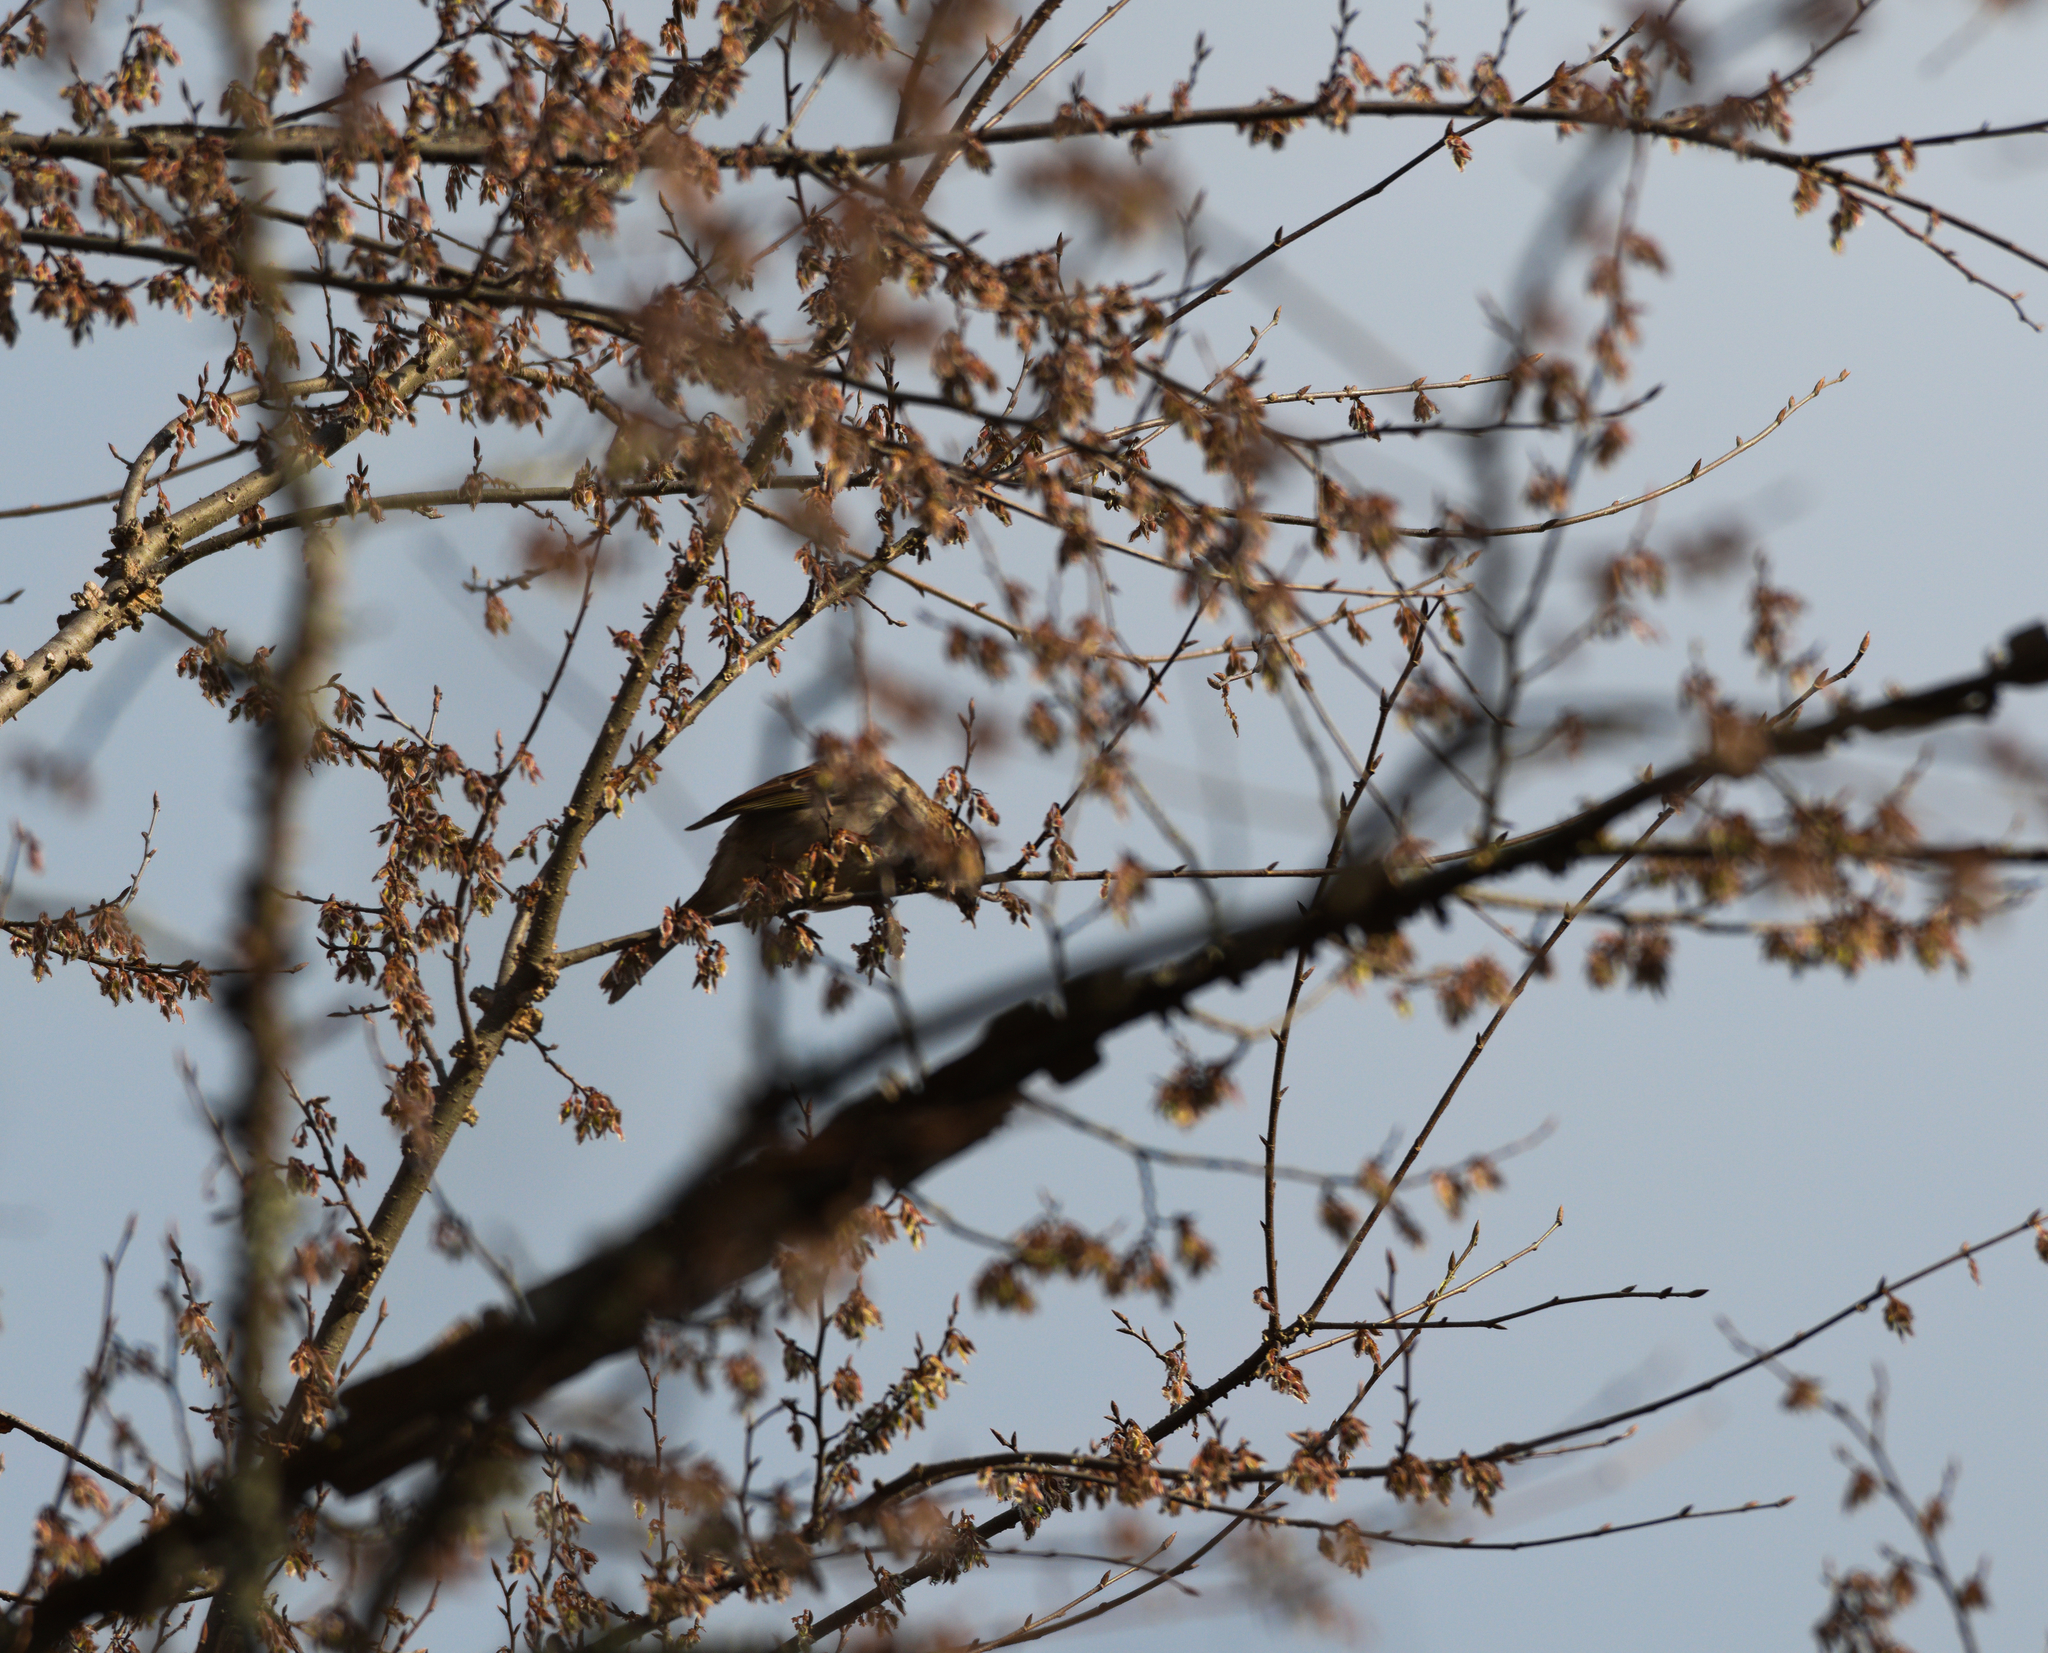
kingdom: Animalia
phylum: Chordata
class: Aves
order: Passeriformes
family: Passerellidae
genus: Zonotrichia
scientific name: Zonotrichia albicollis
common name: White-throated sparrow
